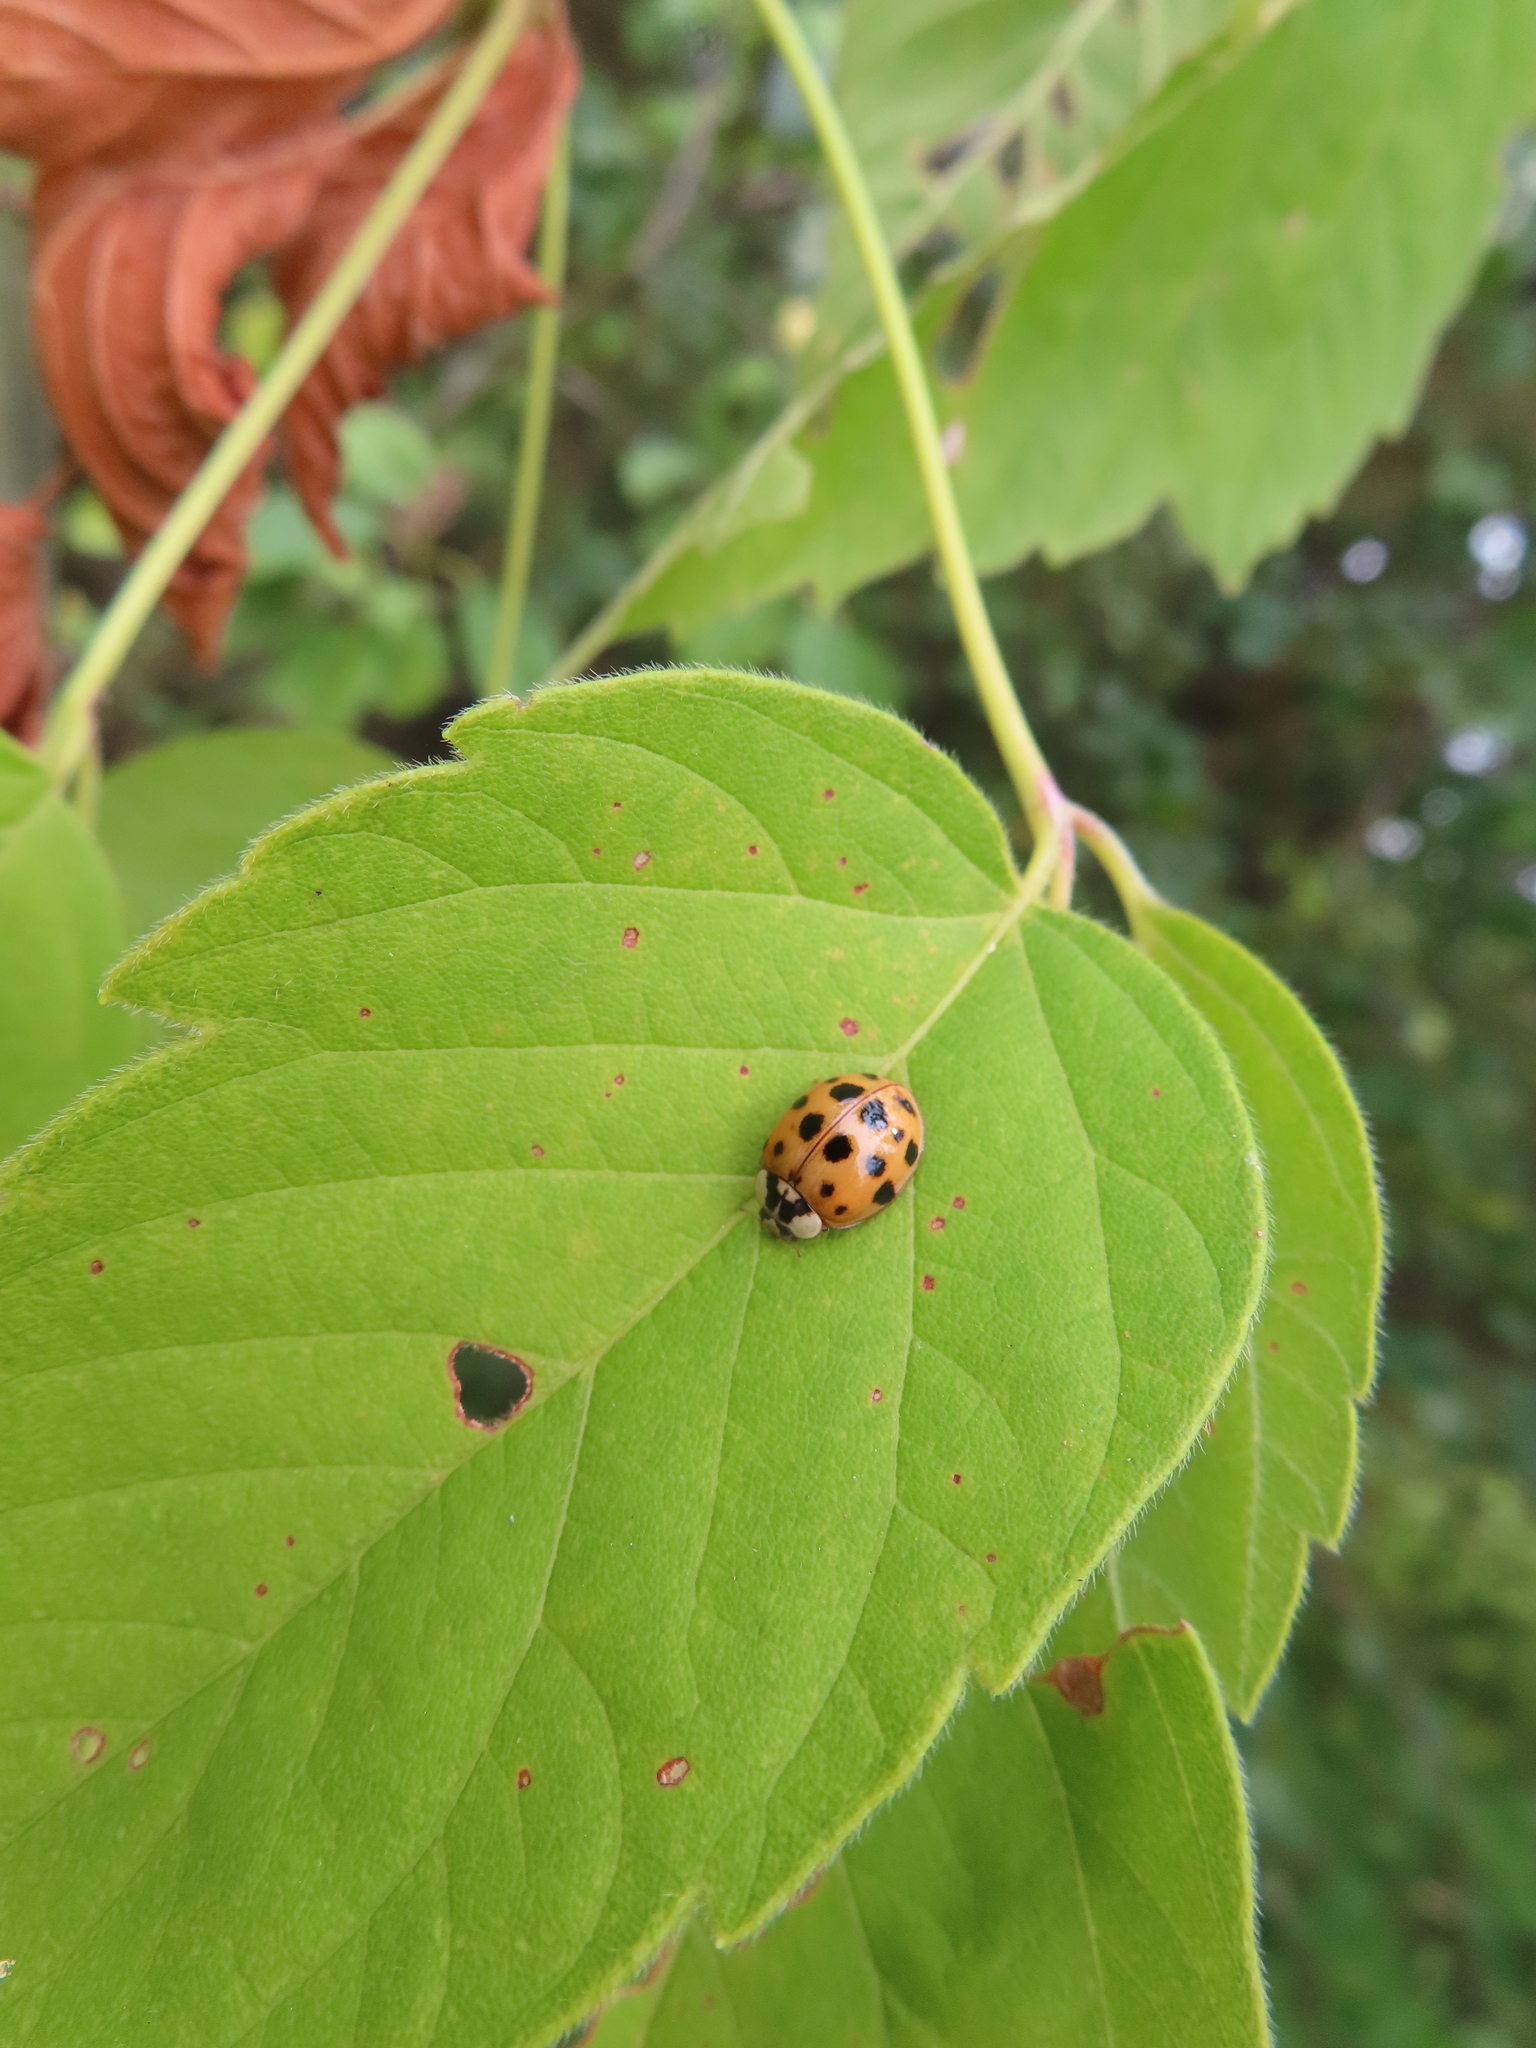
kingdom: Animalia
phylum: Arthropoda
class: Insecta
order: Coleoptera
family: Coccinellidae
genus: Harmonia
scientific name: Harmonia axyridis
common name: Harlequin ladybird
